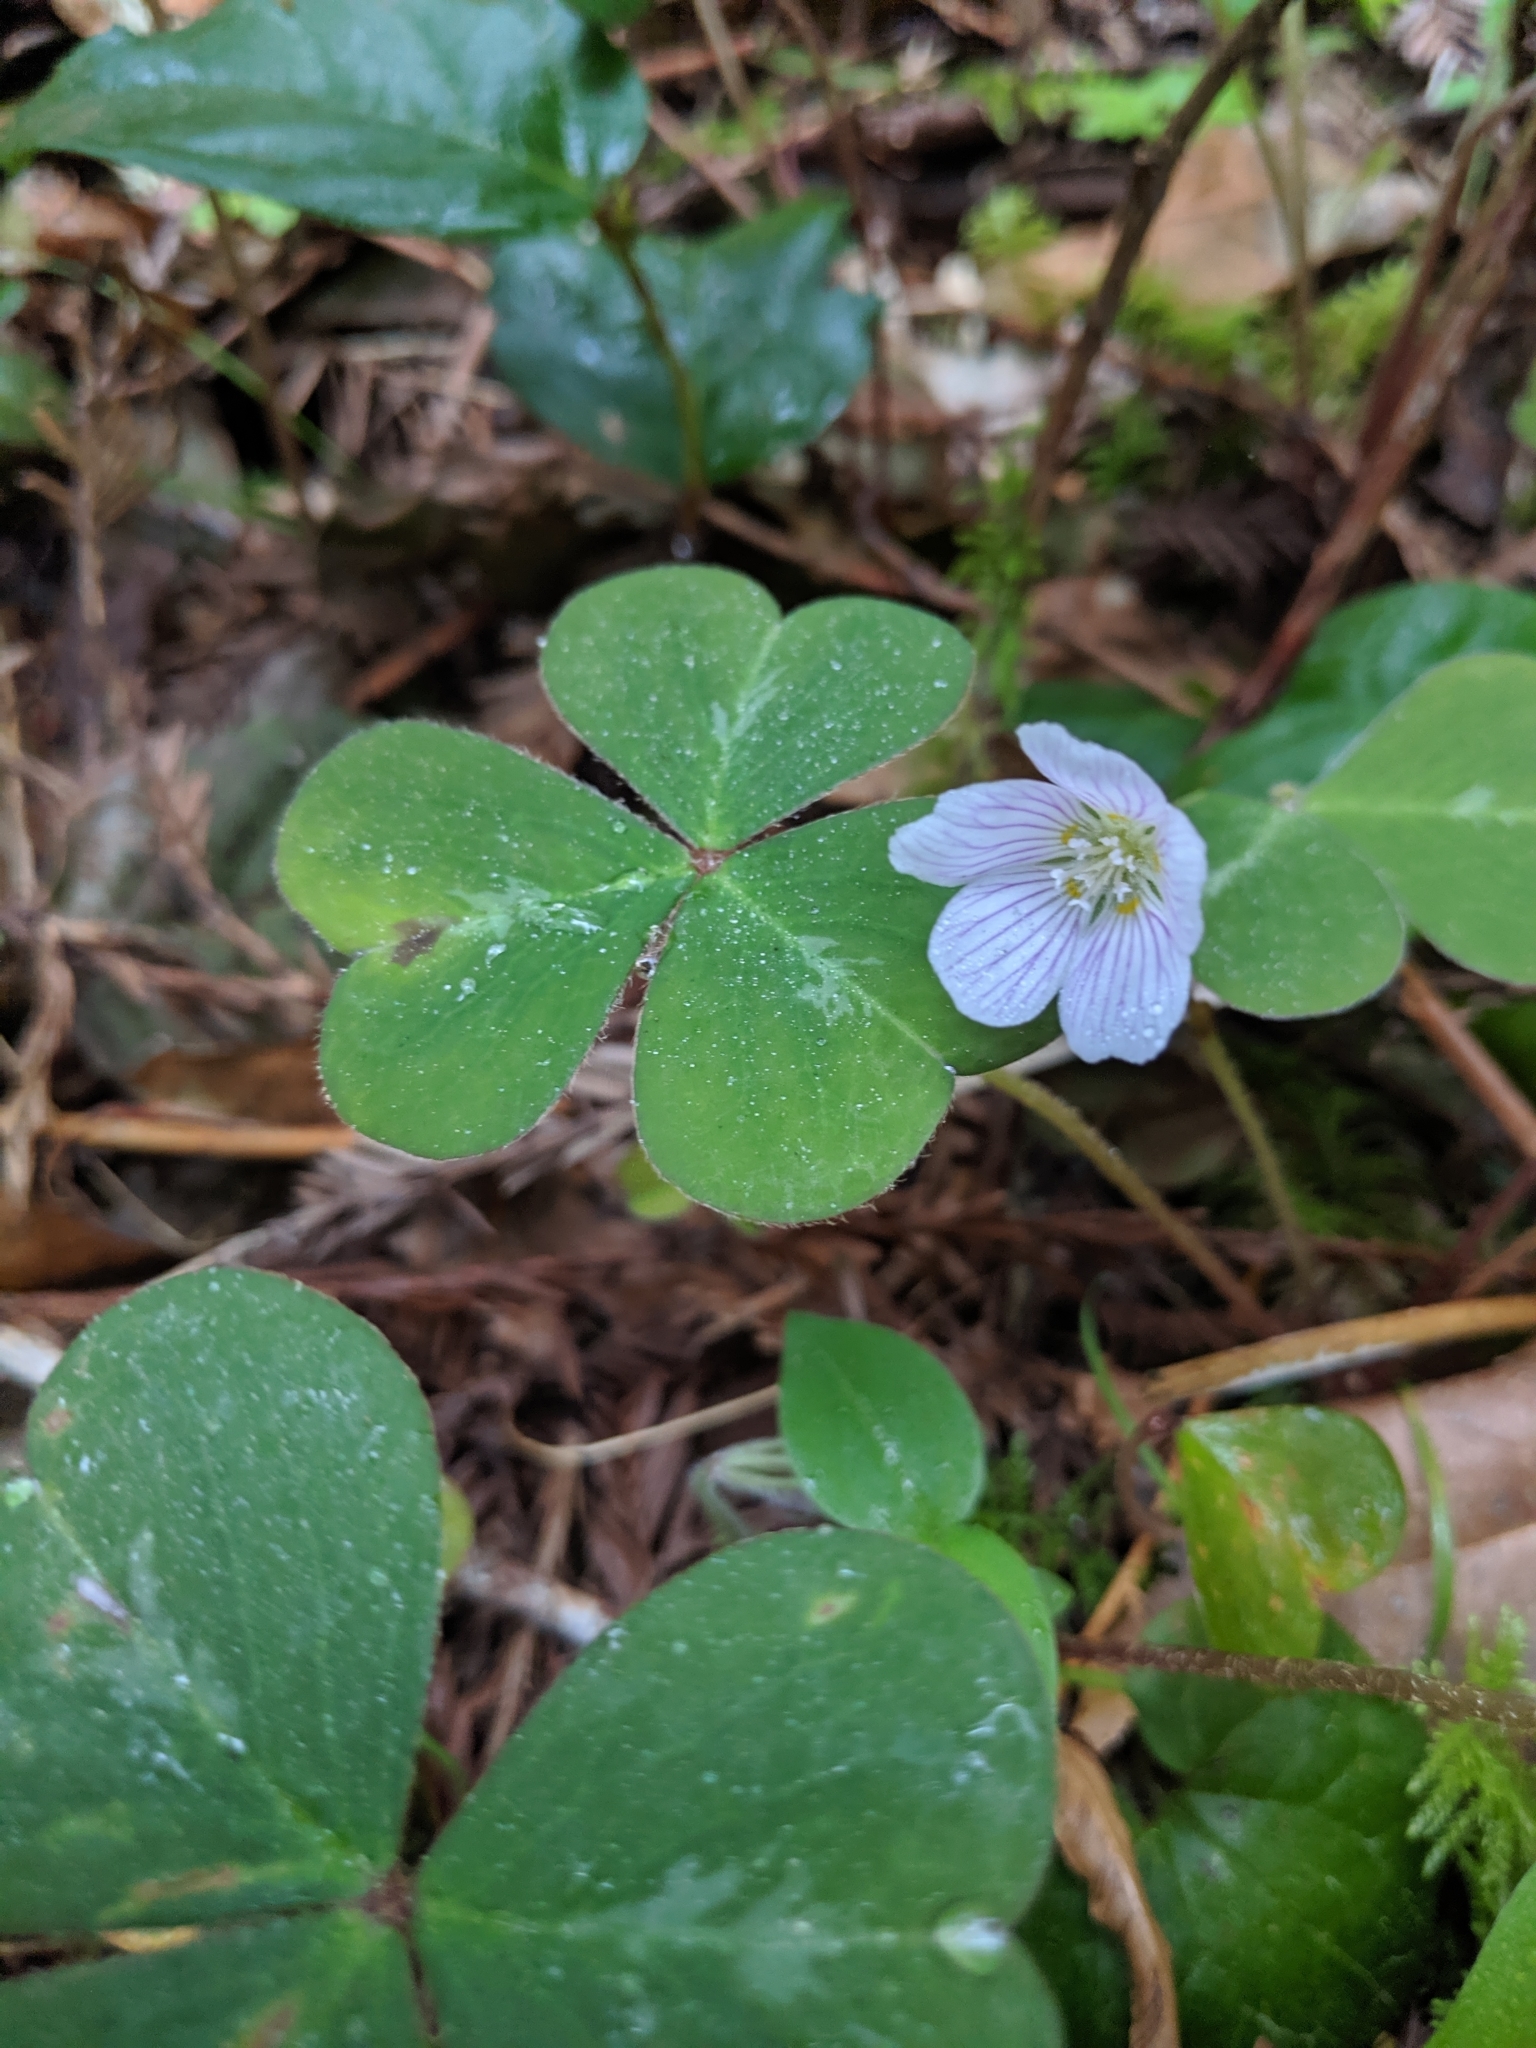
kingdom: Plantae
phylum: Tracheophyta
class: Magnoliopsida
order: Oxalidales
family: Oxalidaceae
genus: Oxalis
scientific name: Oxalis oregana
